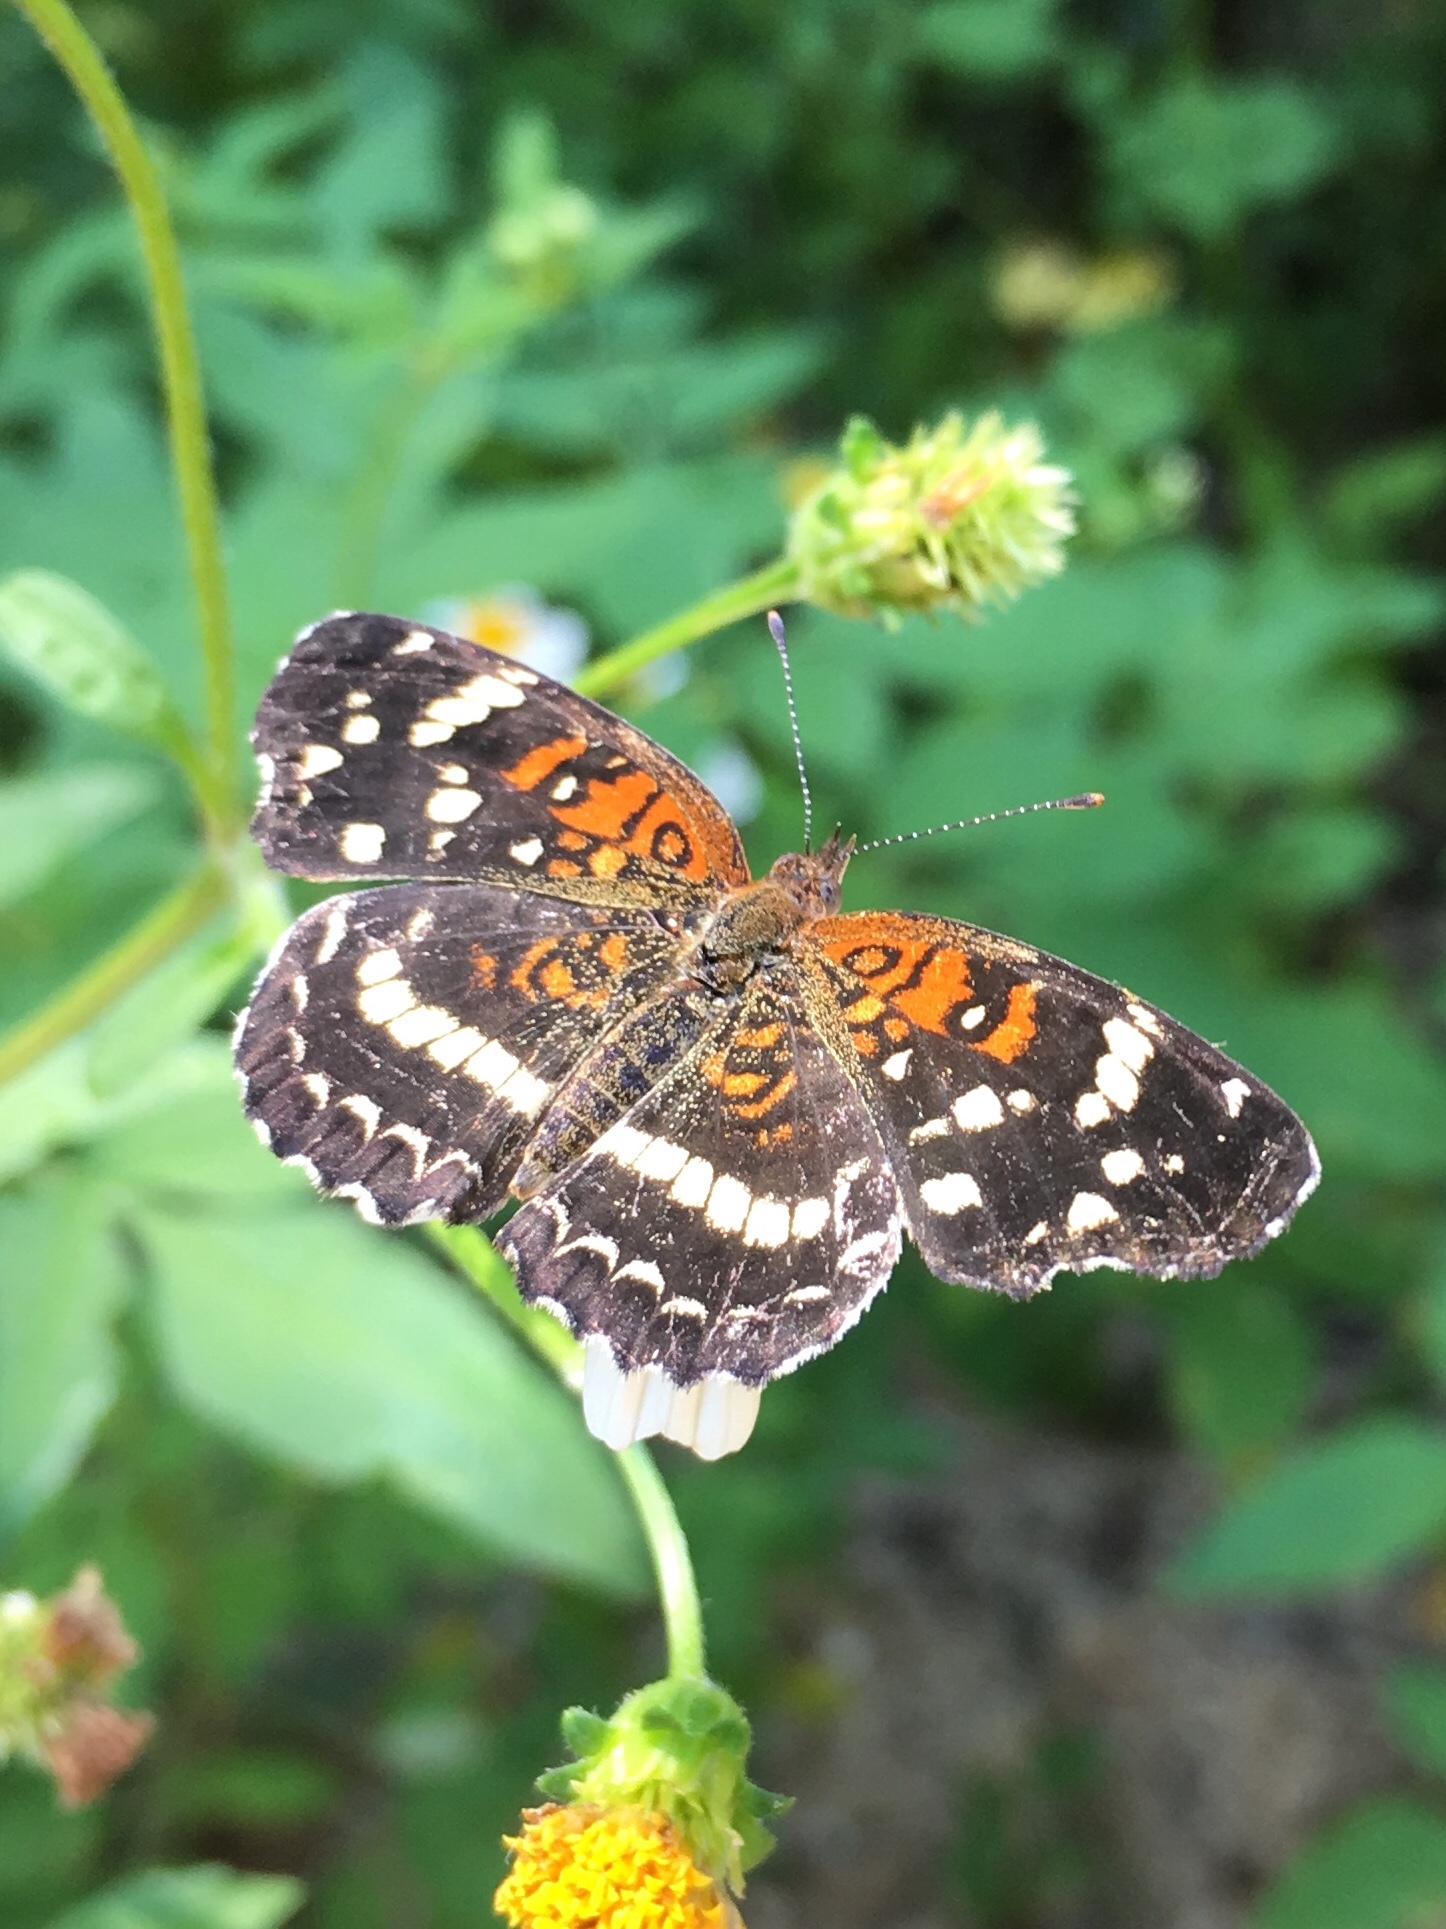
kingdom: Animalia
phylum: Arthropoda
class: Insecta
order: Lepidoptera
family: Nymphalidae
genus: Anthanassa
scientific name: Anthanassa texana
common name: Texan crescent
